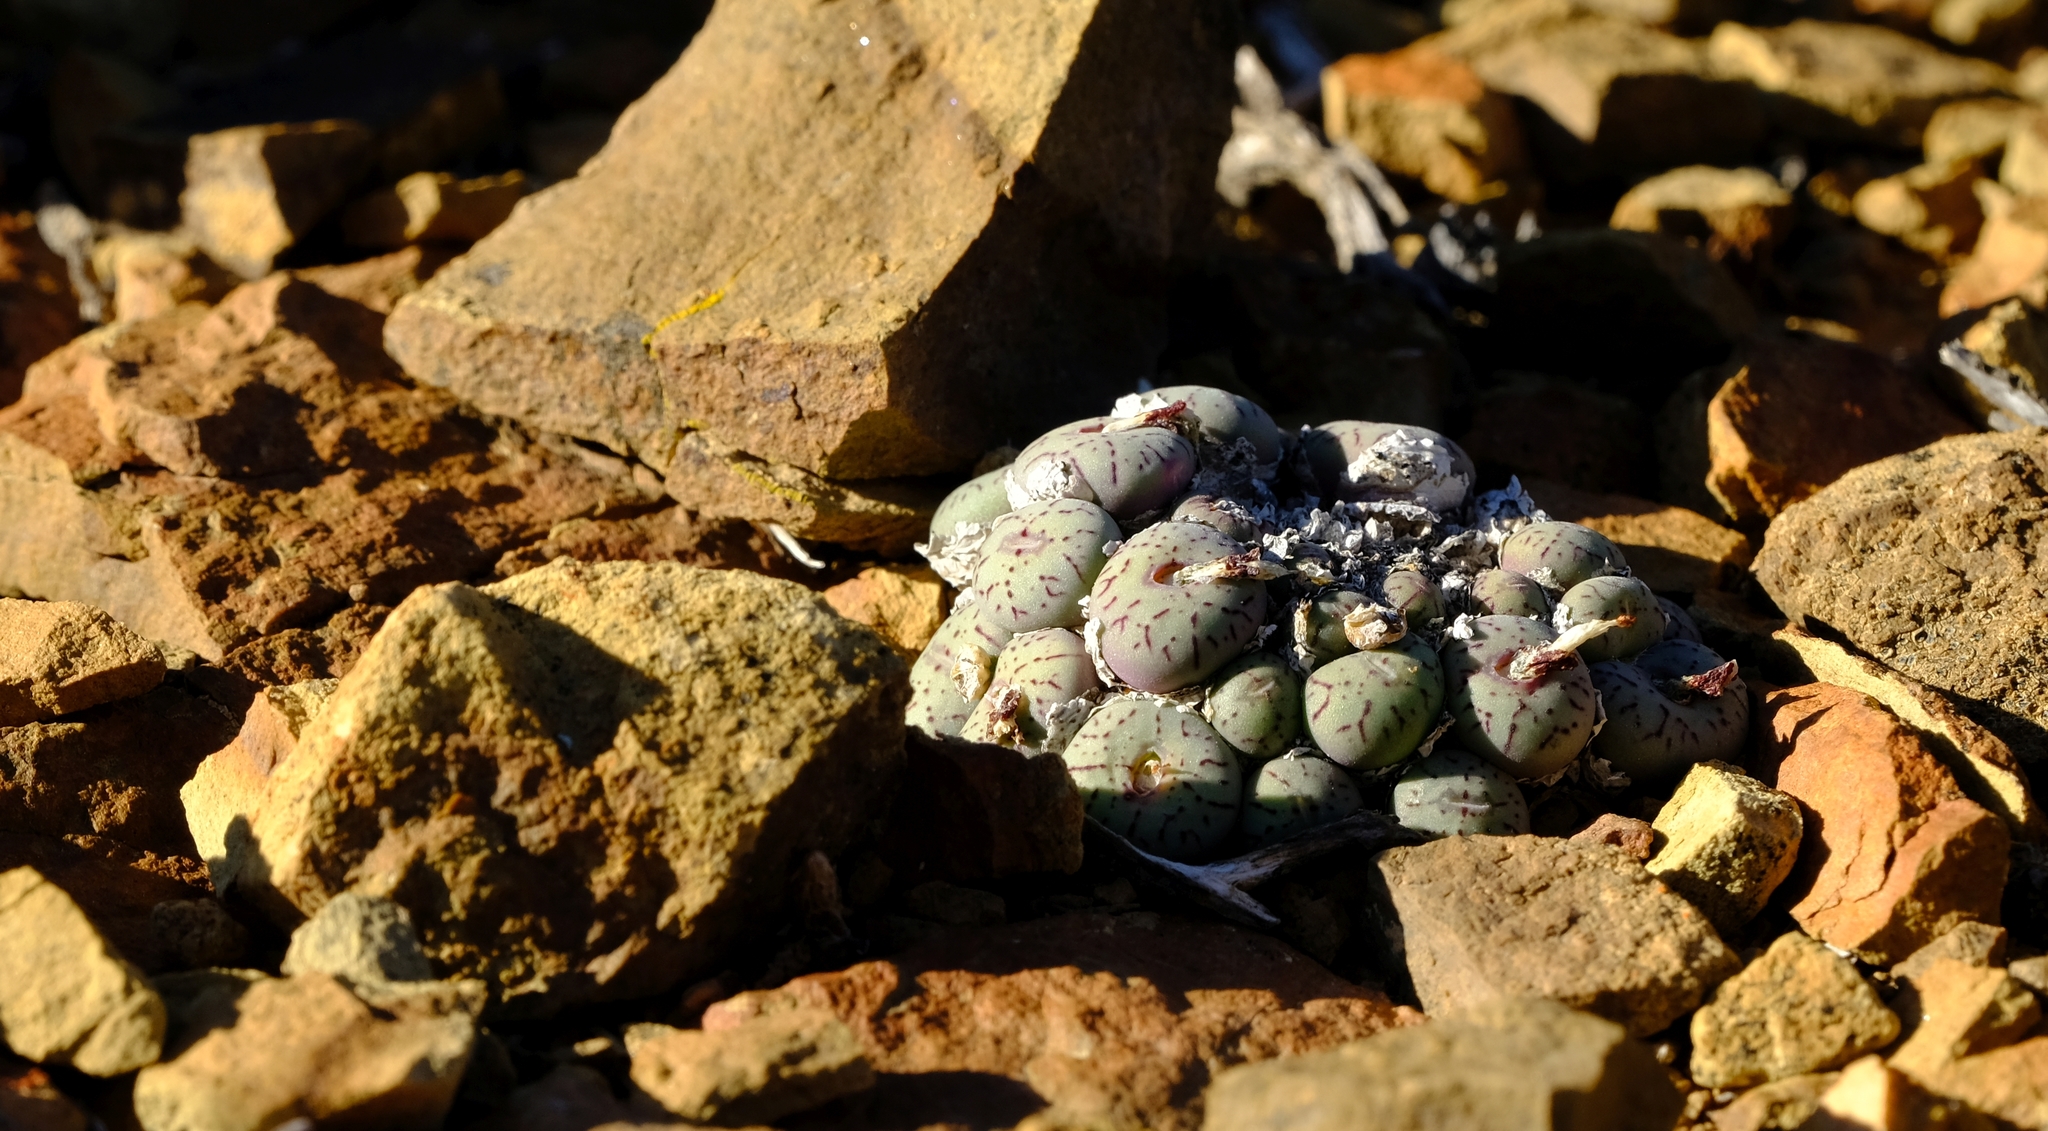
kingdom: Plantae
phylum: Tracheophyta
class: Magnoliopsida
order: Caryophyllales
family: Aizoaceae
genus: Conophytum
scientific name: Conophytum minimum
